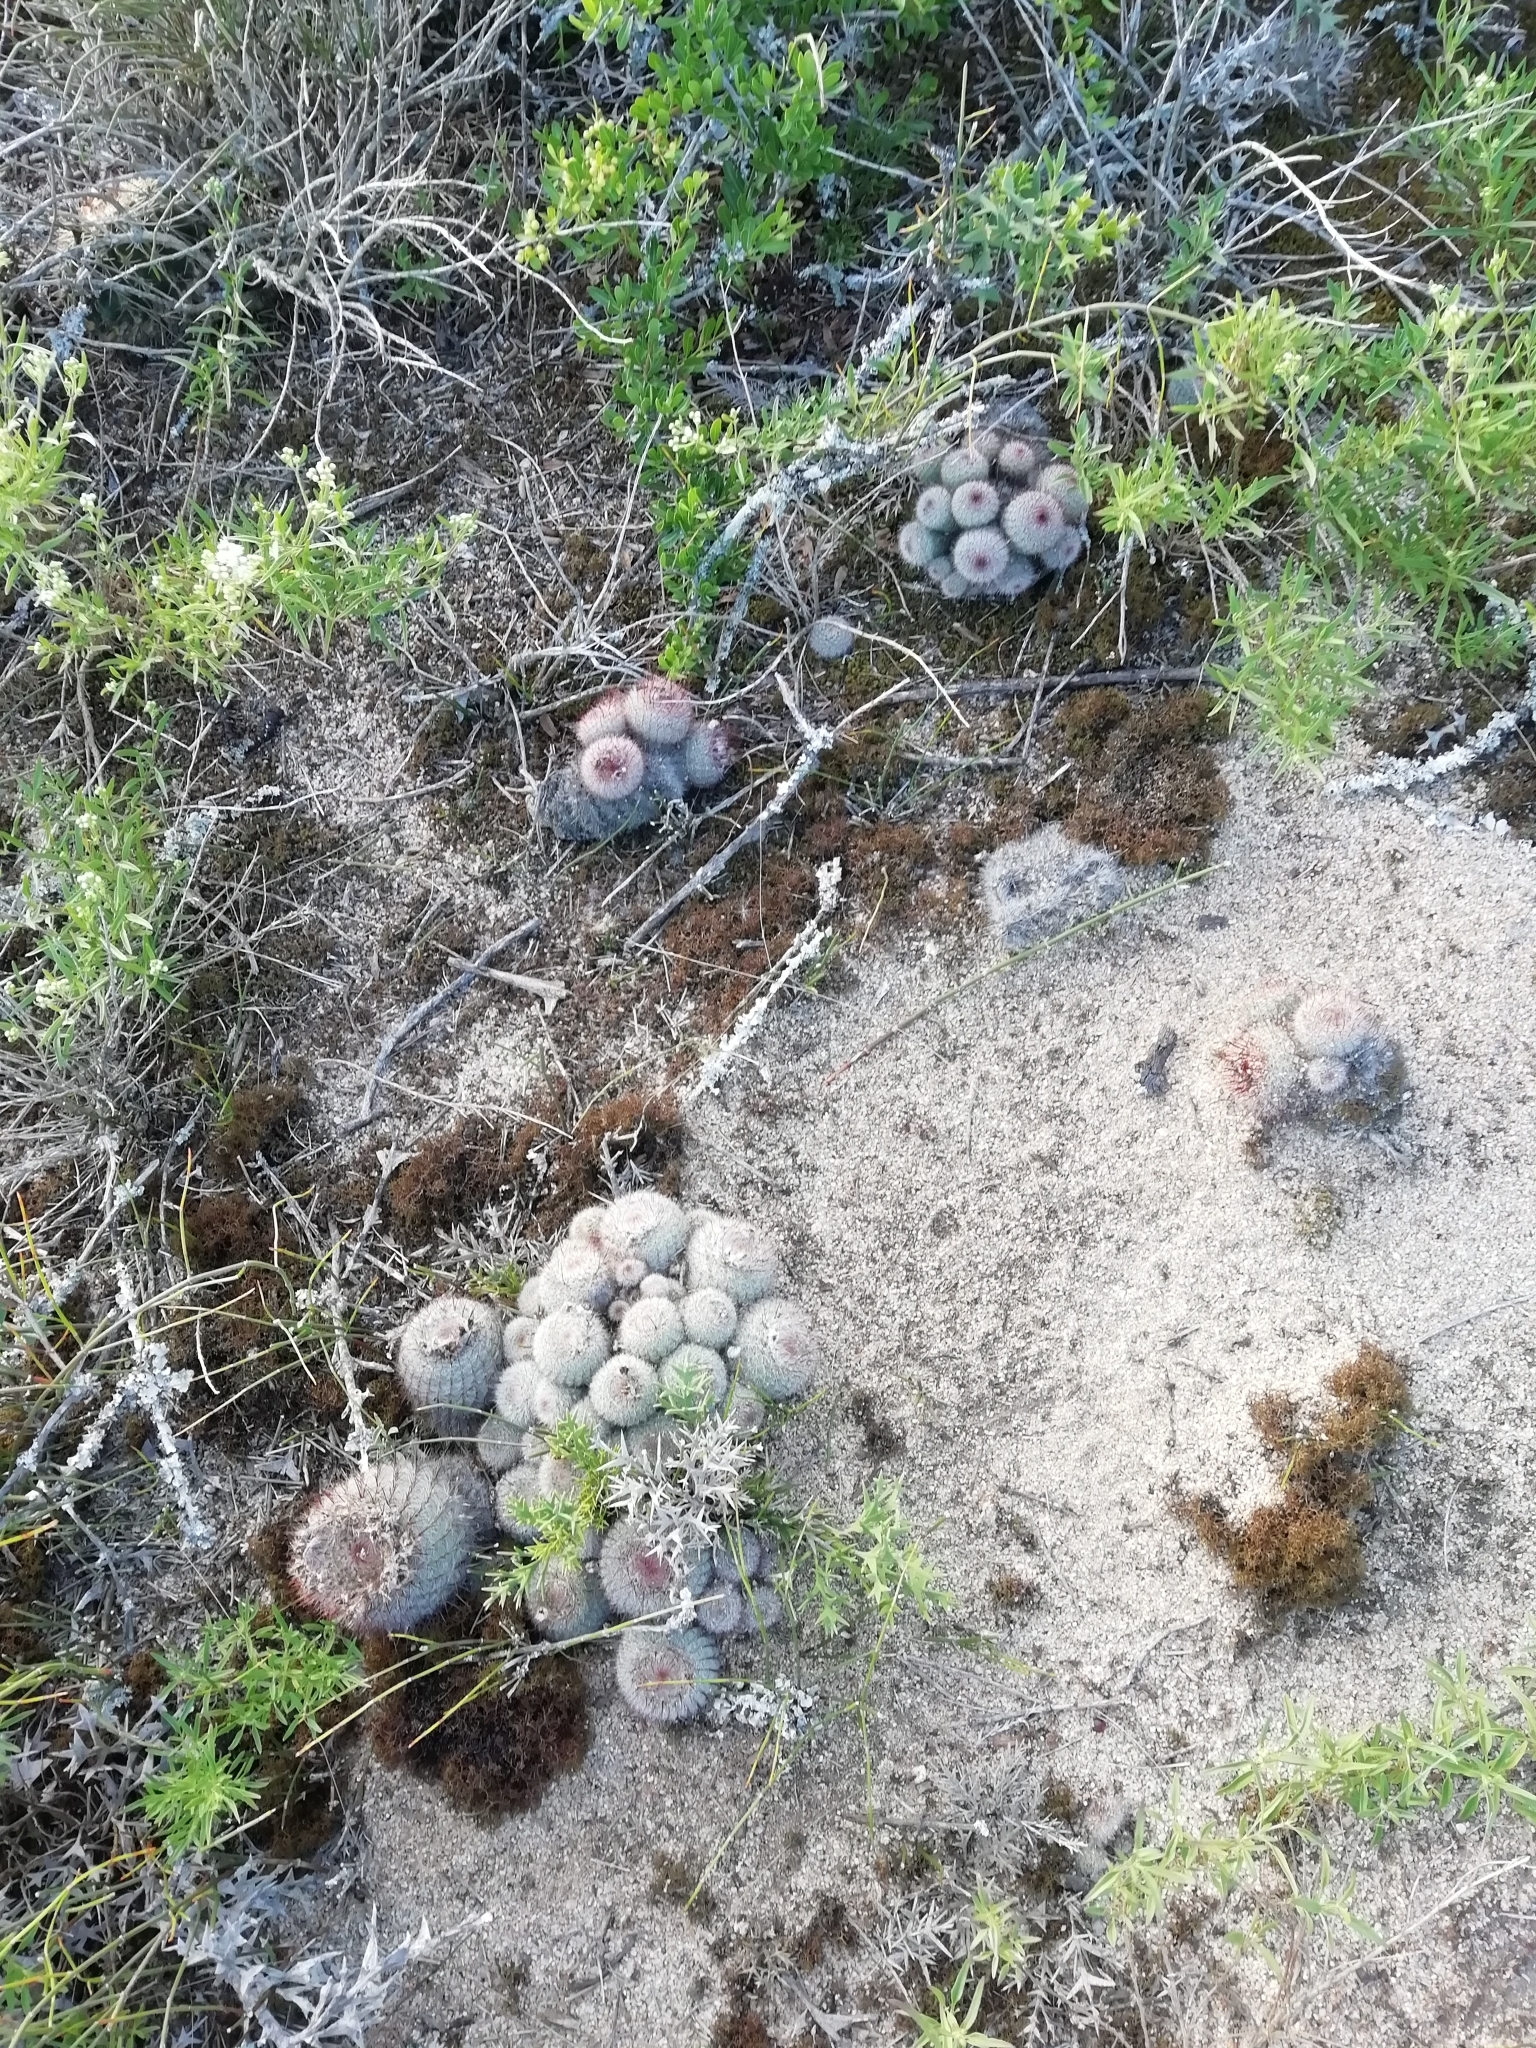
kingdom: Plantae
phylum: Tracheophyta
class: Magnoliopsida
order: Caryophyllales
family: Cactaceae
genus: Parodia
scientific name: Parodia scopa
